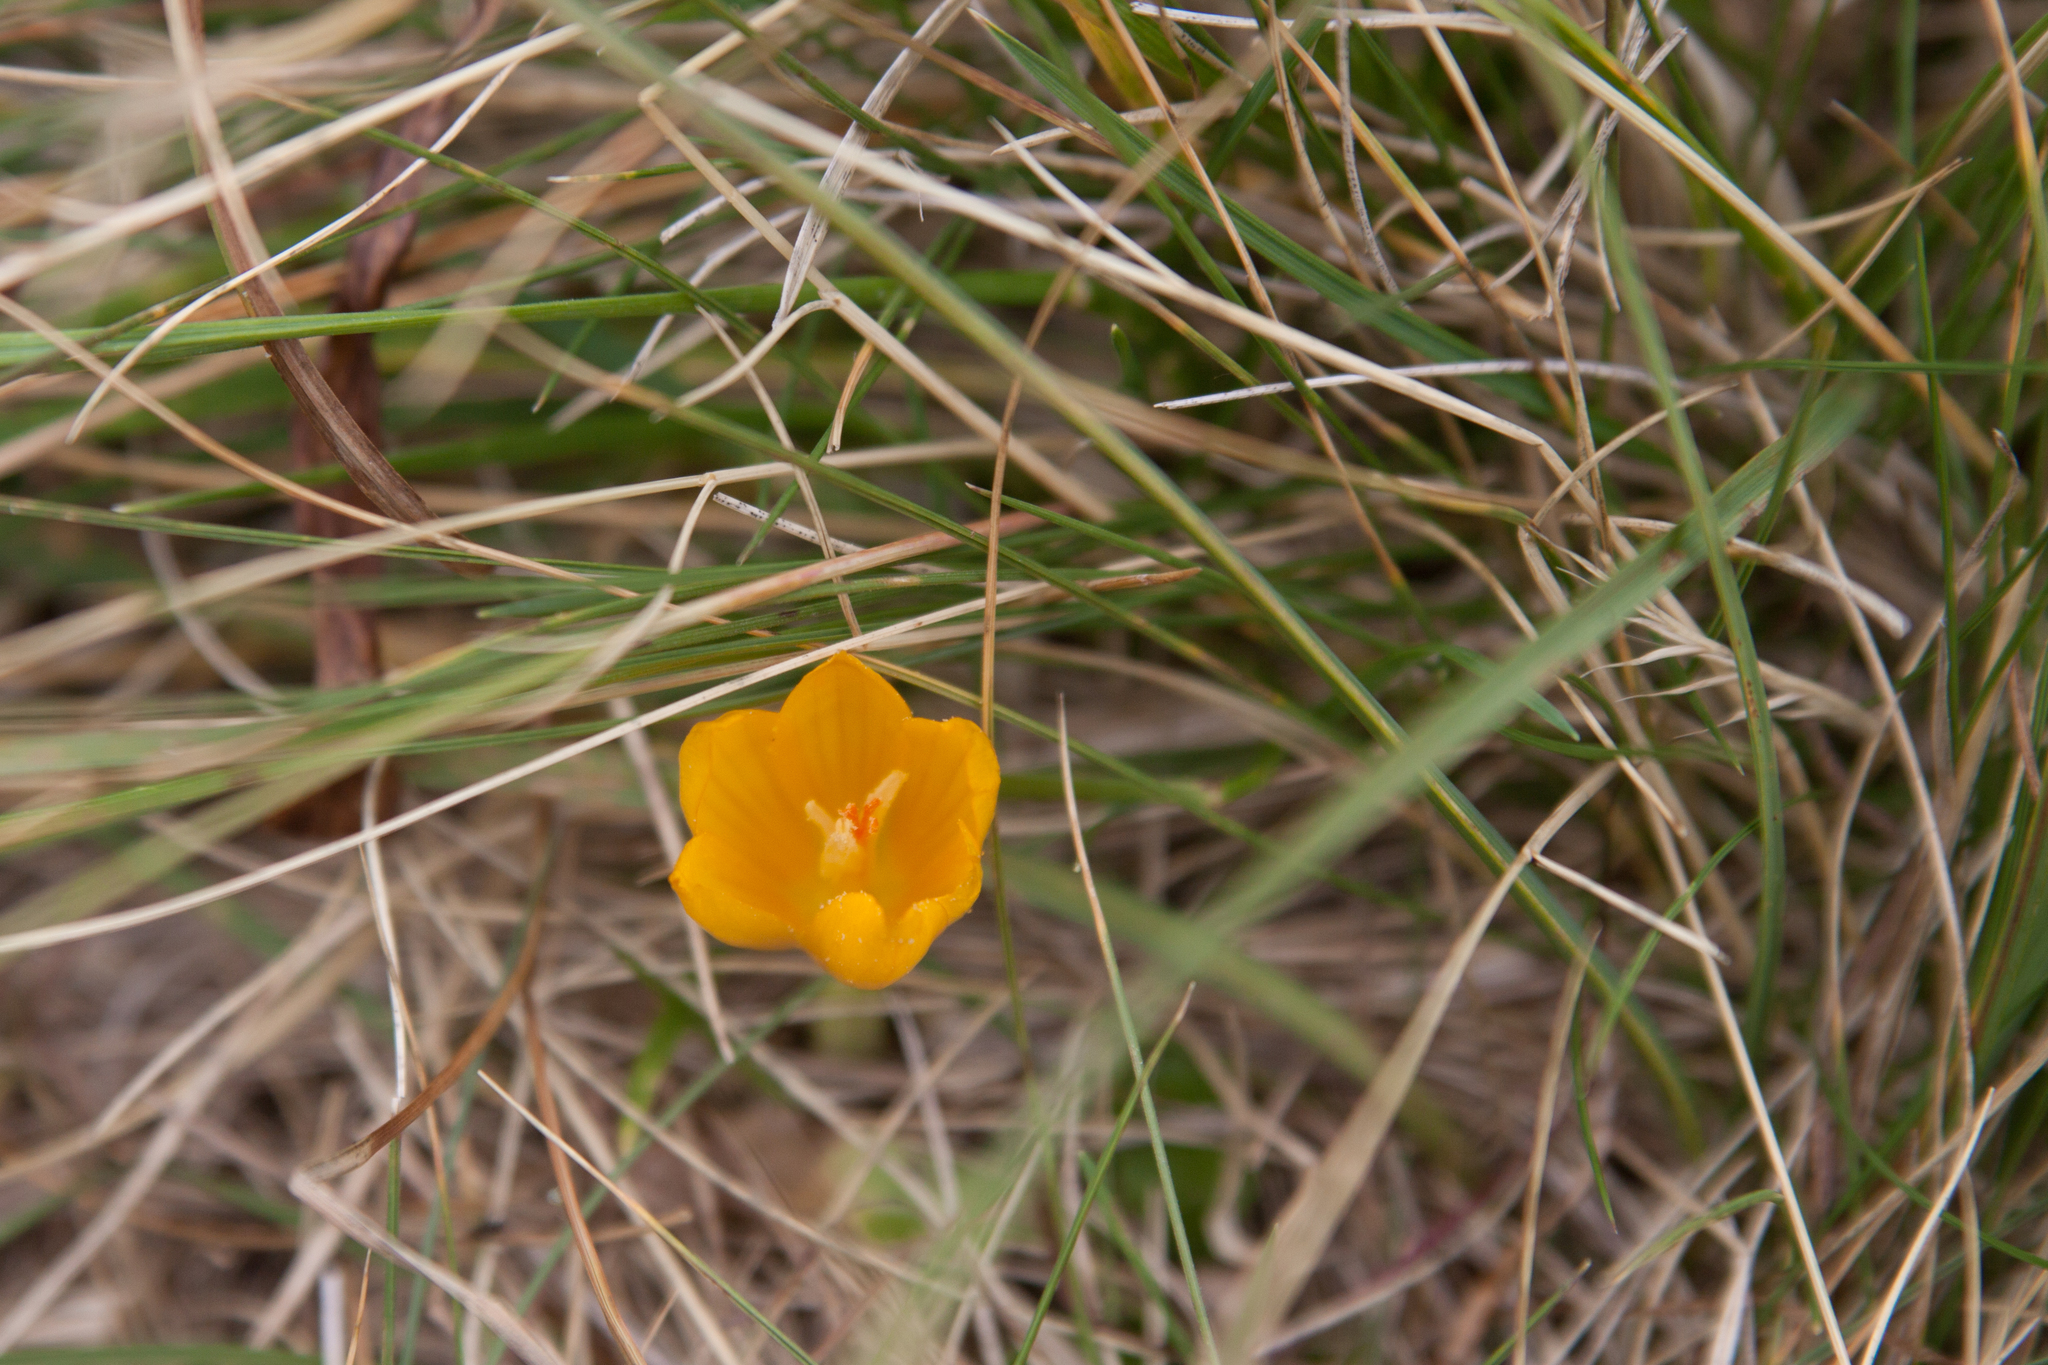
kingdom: Plantae
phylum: Tracheophyta
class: Liliopsida
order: Asparagales
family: Iridaceae
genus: Crocus
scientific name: Crocus scharojanii
